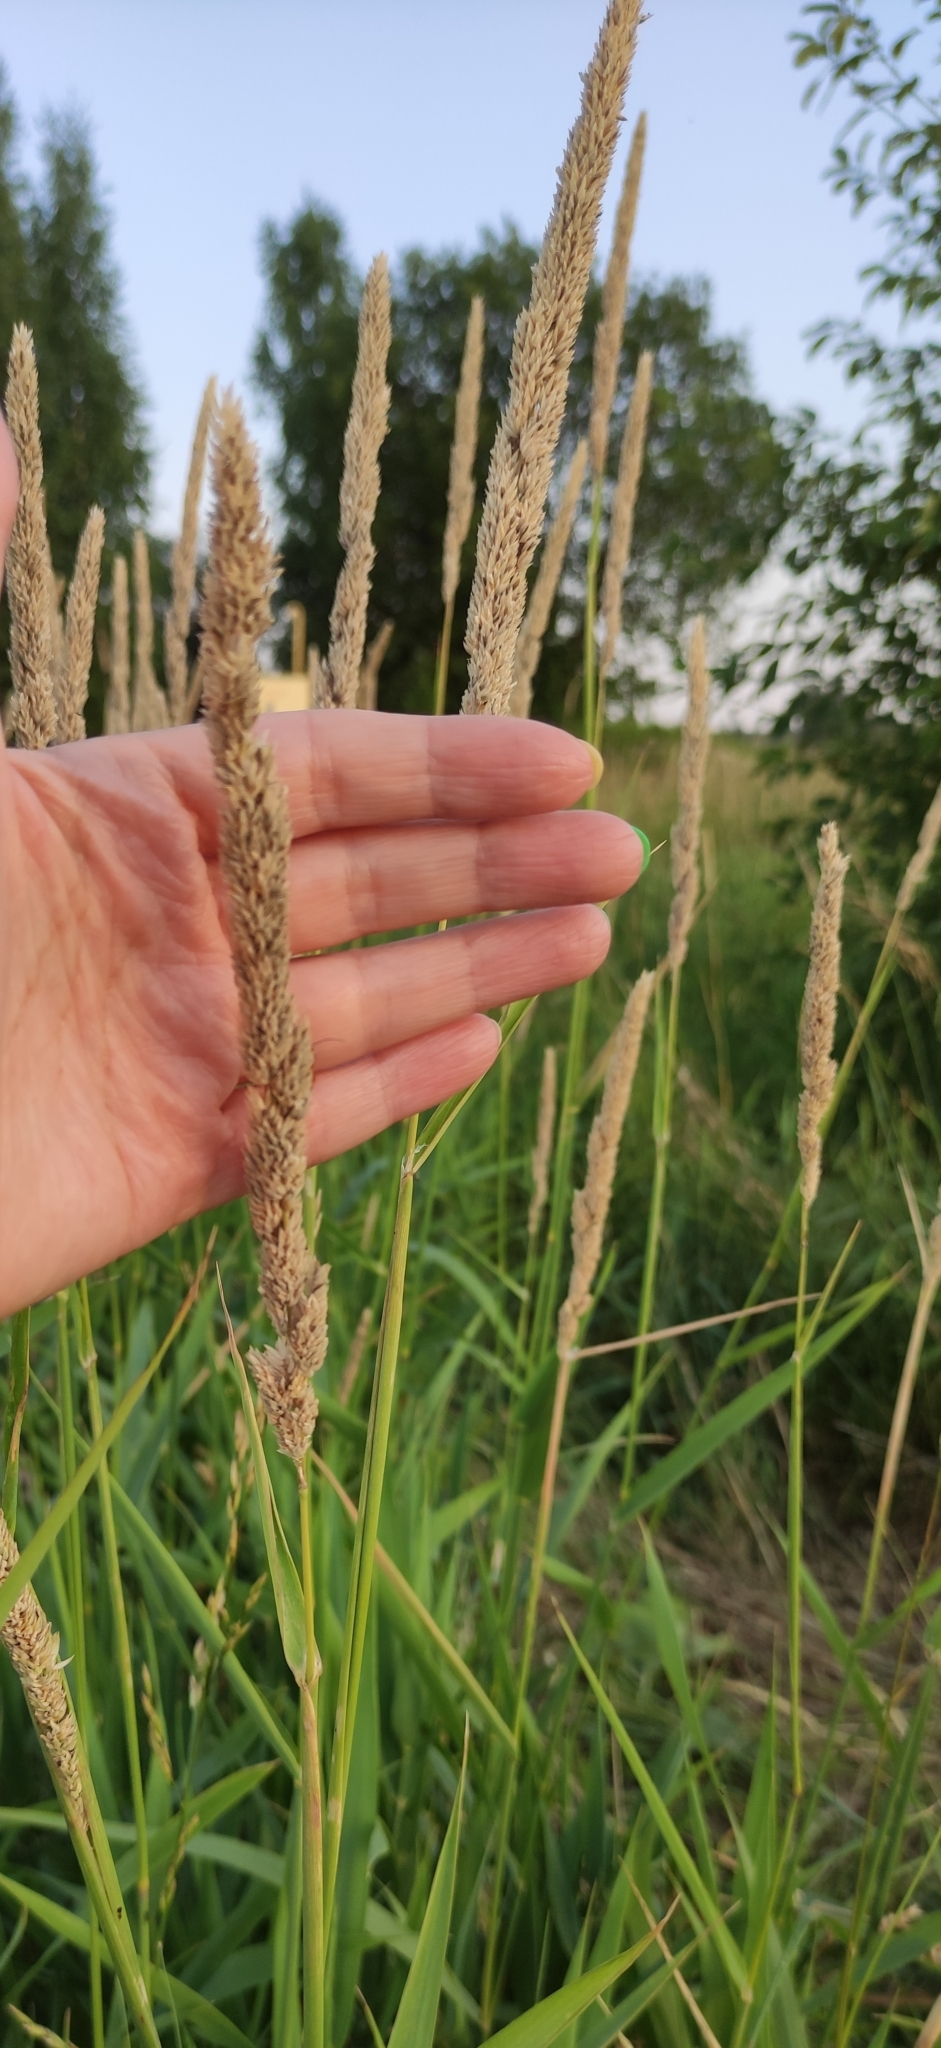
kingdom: Plantae
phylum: Tracheophyta
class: Liliopsida
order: Poales
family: Poaceae
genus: Phalaris
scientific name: Phalaris arundinacea
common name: Reed canary-grass
